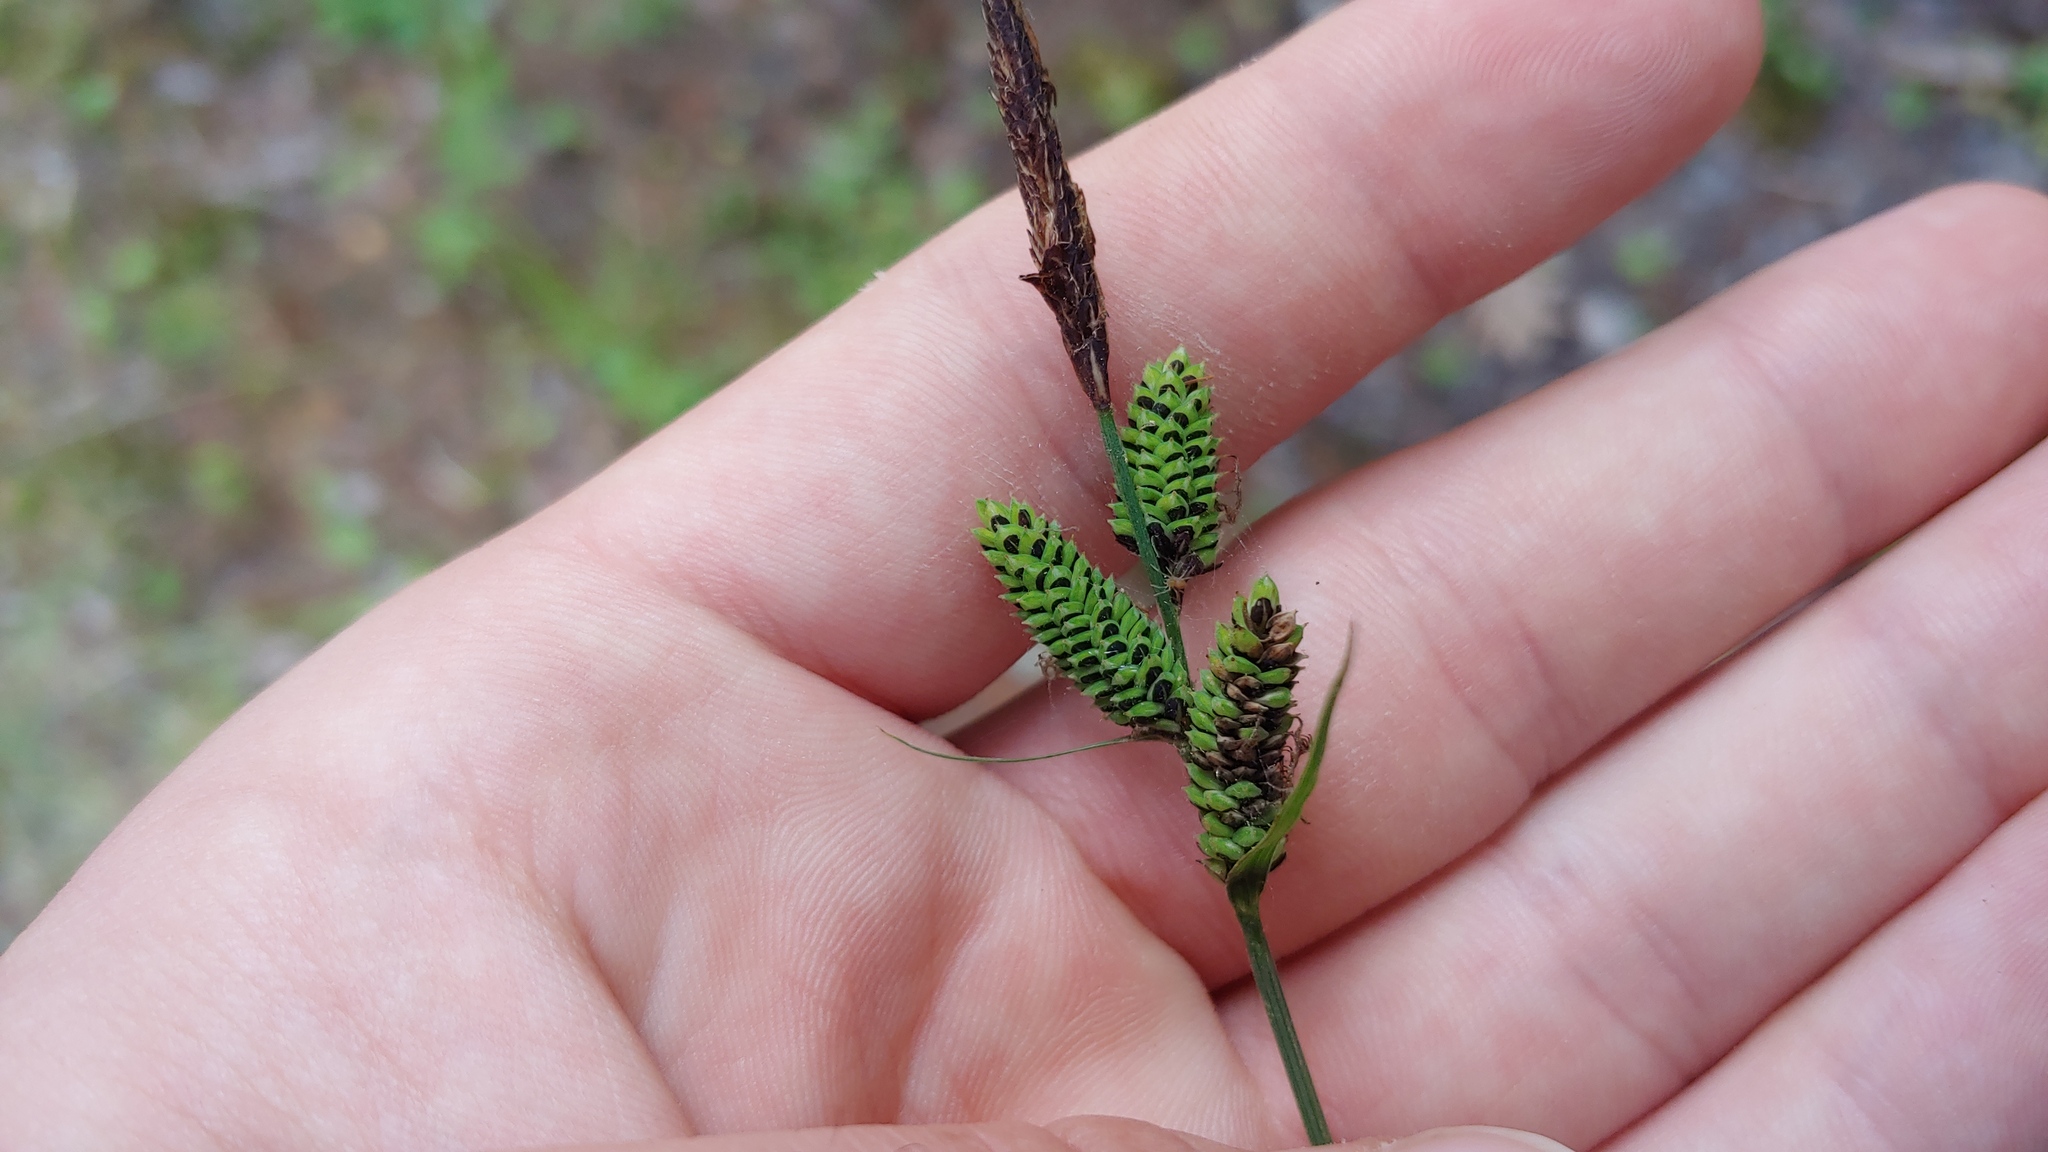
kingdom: Plantae
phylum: Tracheophyta
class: Liliopsida
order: Poales
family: Cyperaceae
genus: Carex
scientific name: Carex nigra
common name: Common sedge
